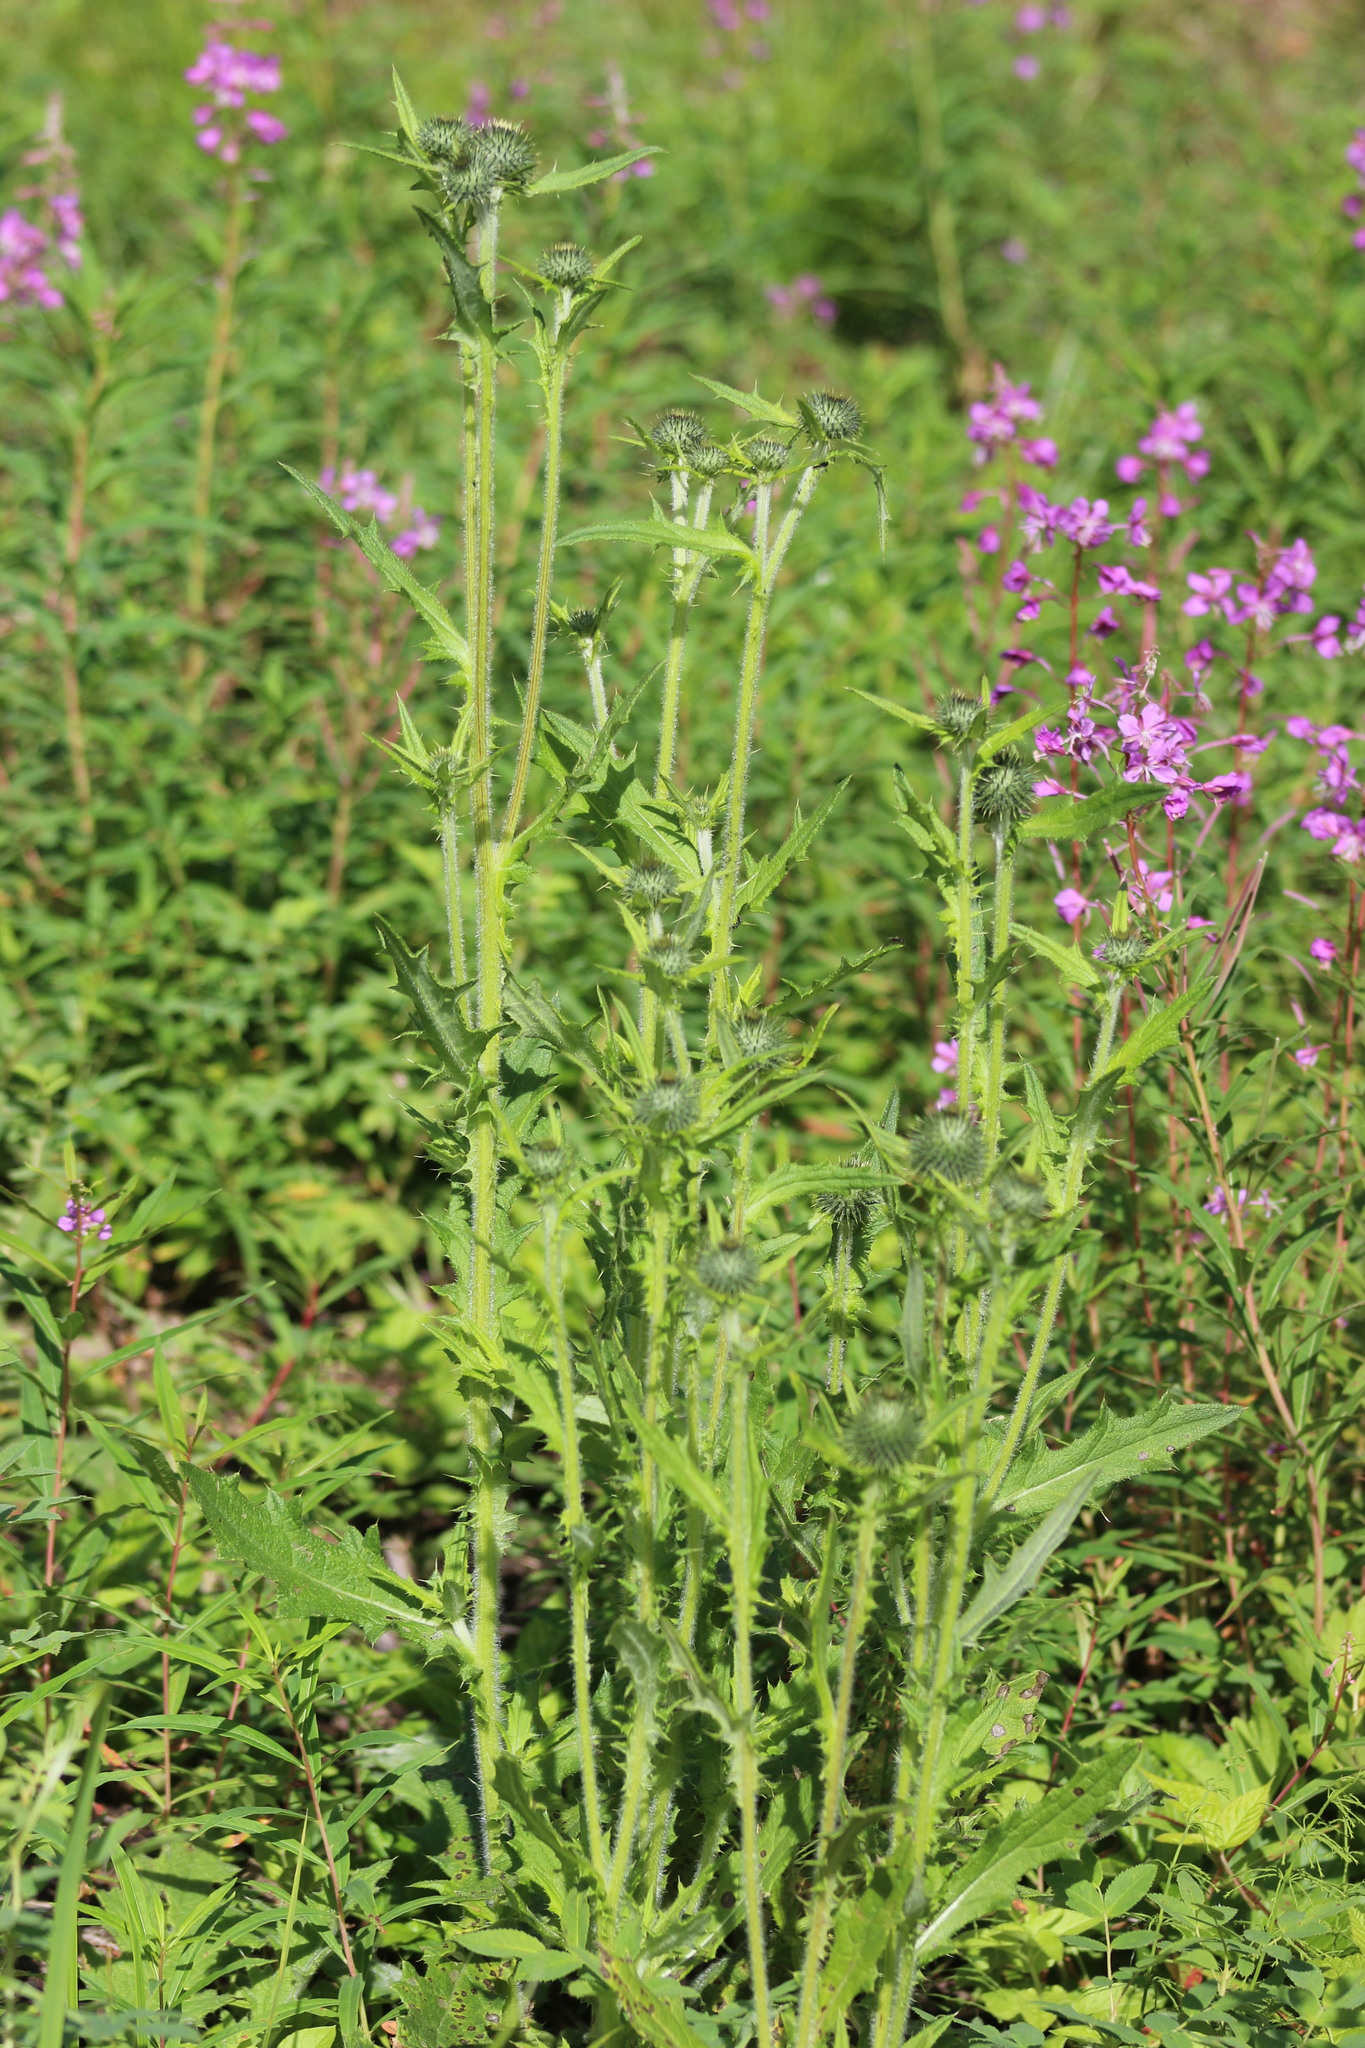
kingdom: Plantae
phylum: Tracheophyta
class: Magnoliopsida
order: Asterales
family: Asteraceae
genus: Cirsium
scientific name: Cirsium vulgare
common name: Bull thistle
